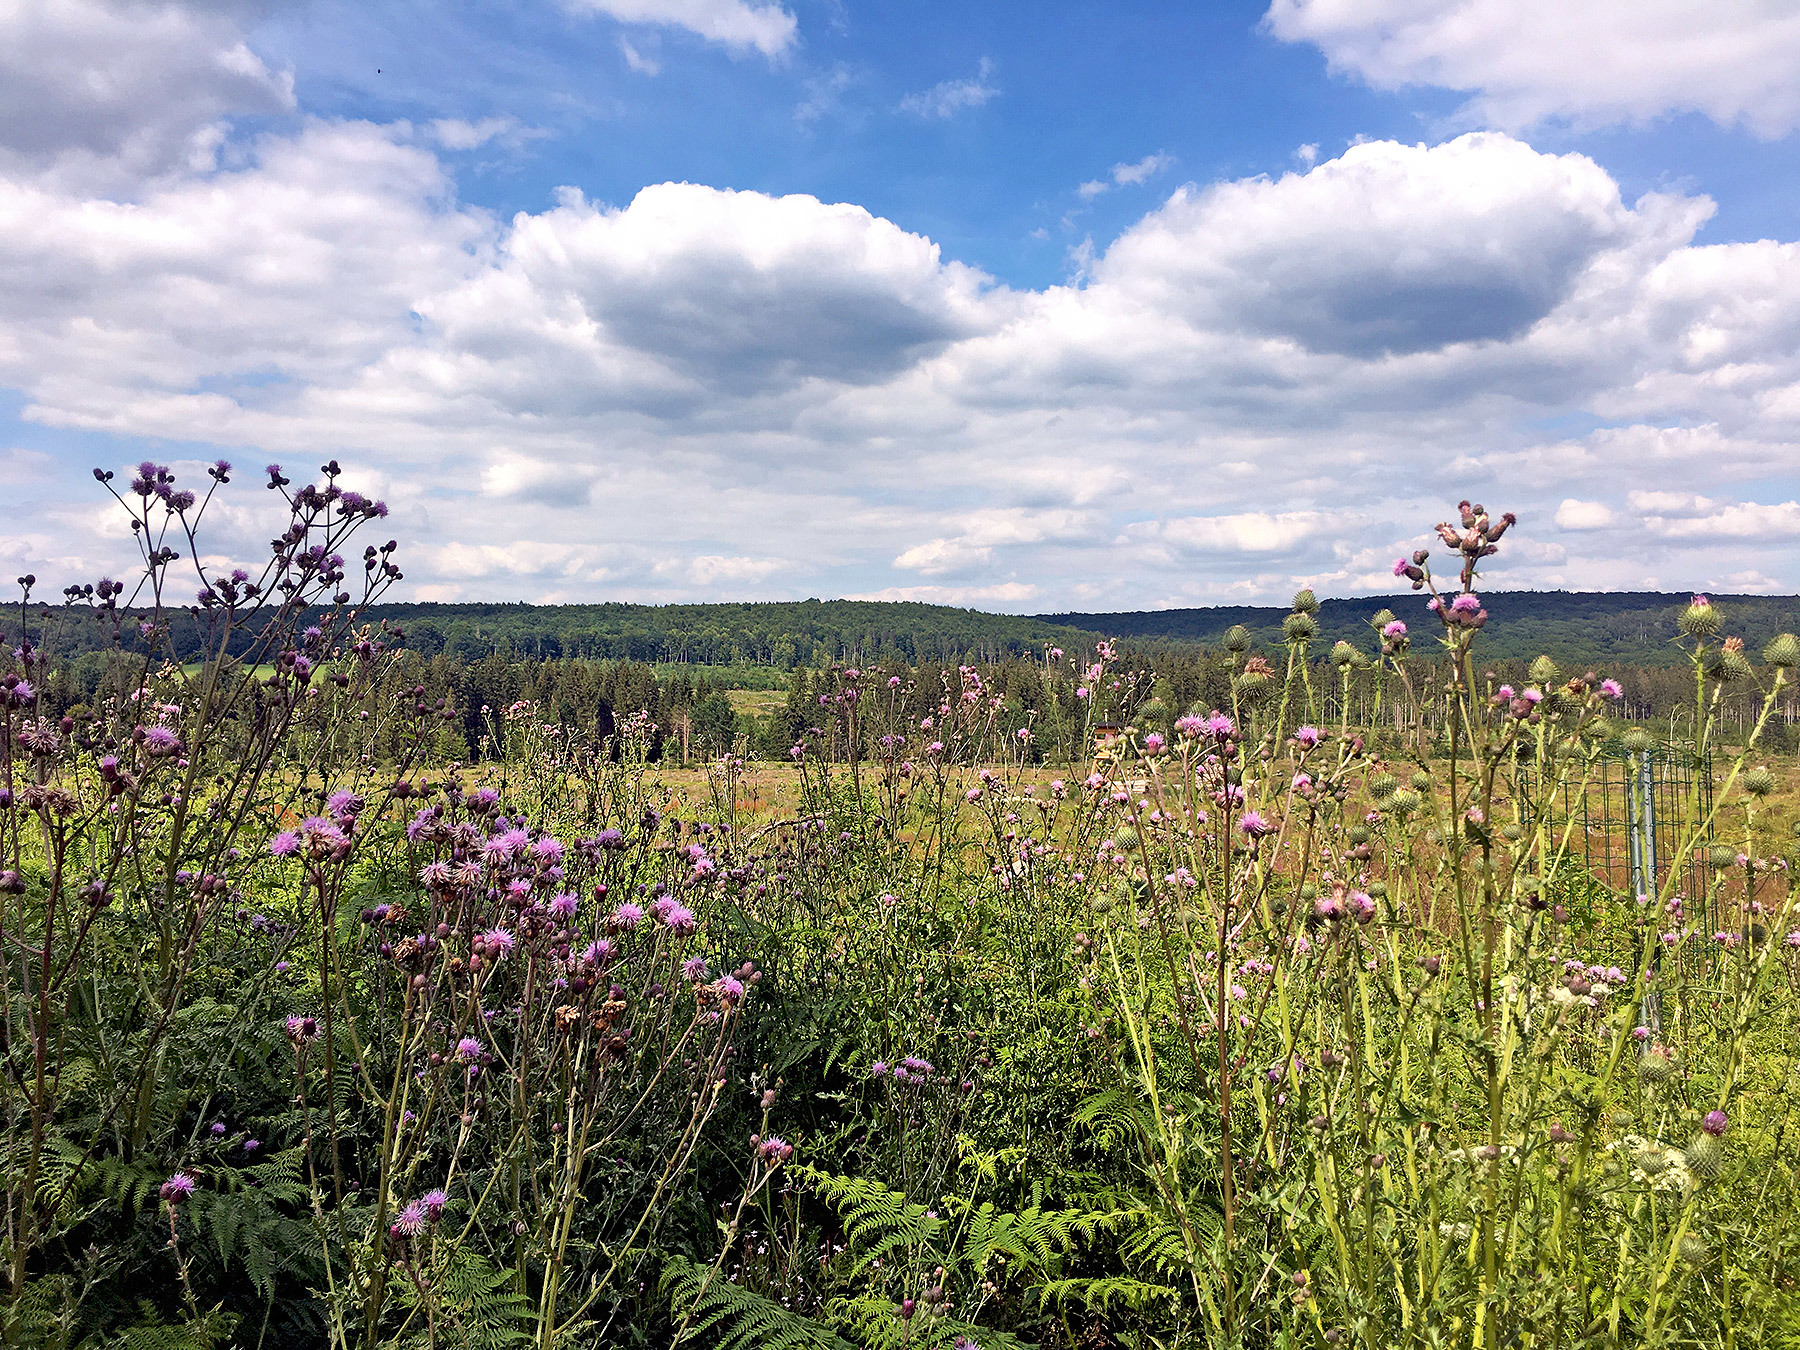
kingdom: Plantae
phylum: Tracheophyta
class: Magnoliopsida
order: Asterales
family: Asteraceae
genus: Cirsium
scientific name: Cirsium arvense
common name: Creeping thistle
